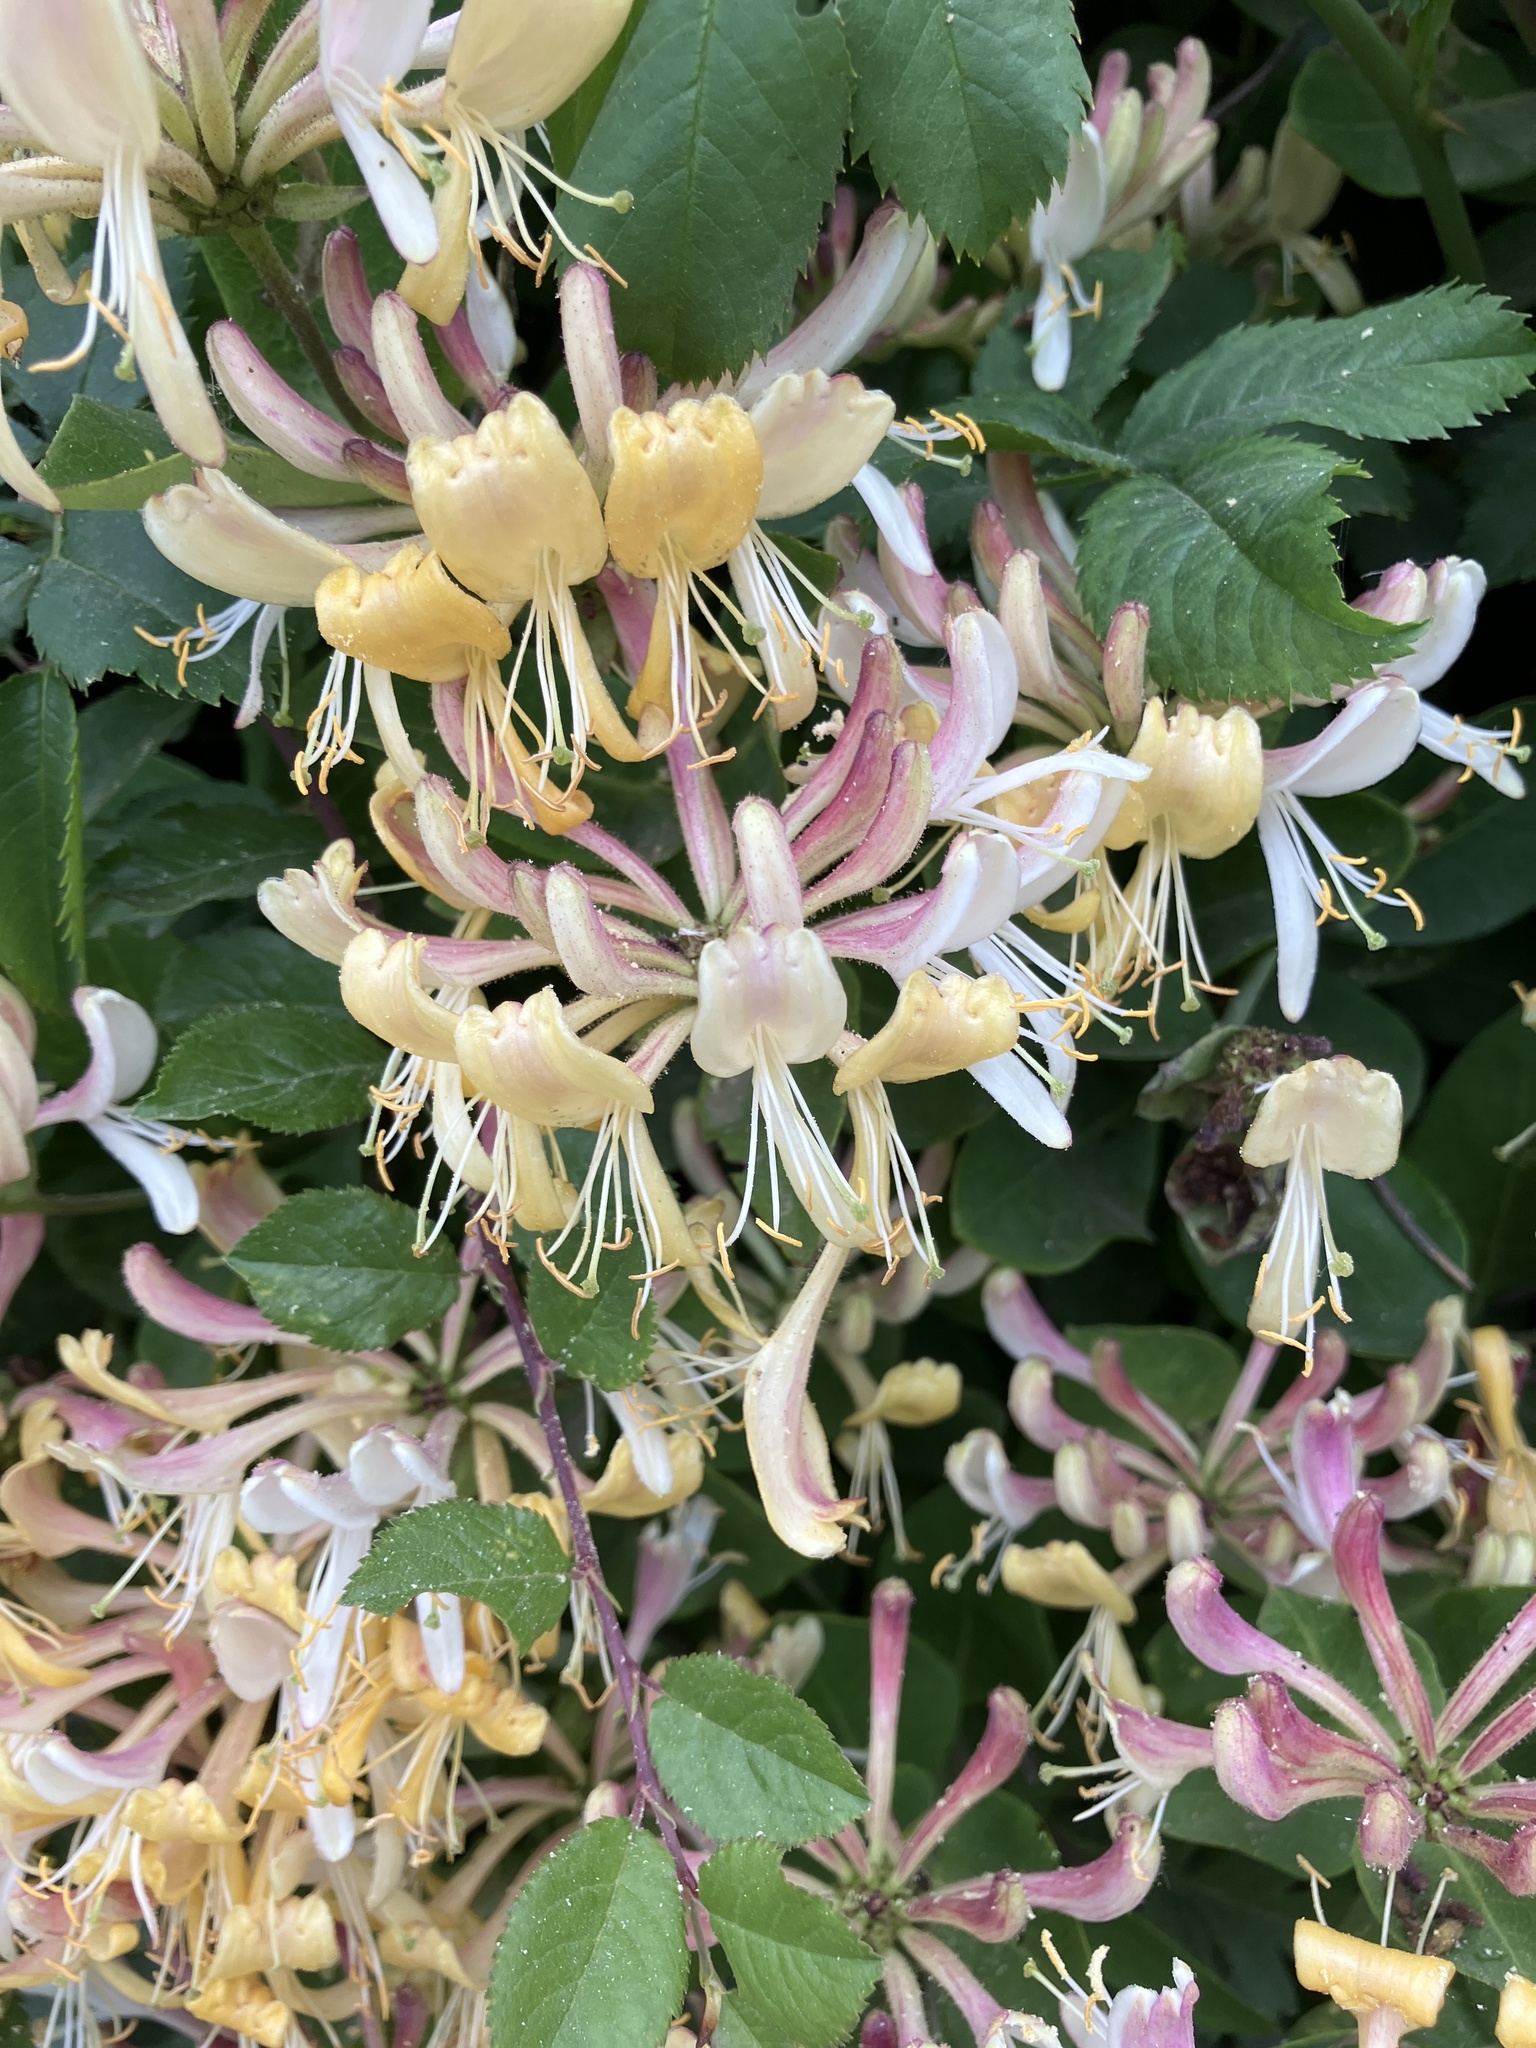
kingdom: Plantae
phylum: Tracheophyta
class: Magnoliopsida
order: Dipsacales
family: Caprifoliaceae
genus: Lonicera
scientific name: Lonicera periclymenum
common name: European honeysuckle
